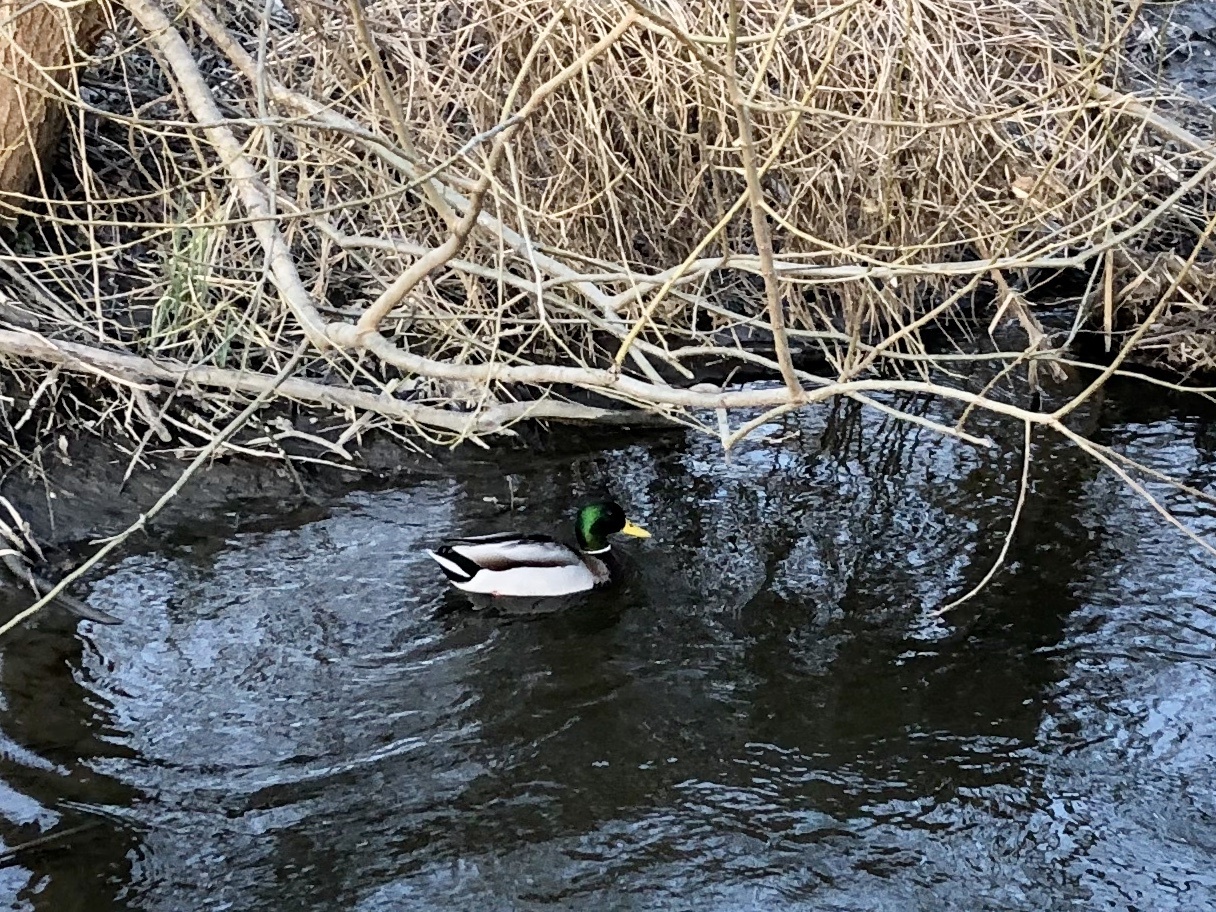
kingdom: Animalia
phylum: Chordata
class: Aves
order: Anseriformes
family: Anatidae
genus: Anas
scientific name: Anas platyrhynchos
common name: Mallard
